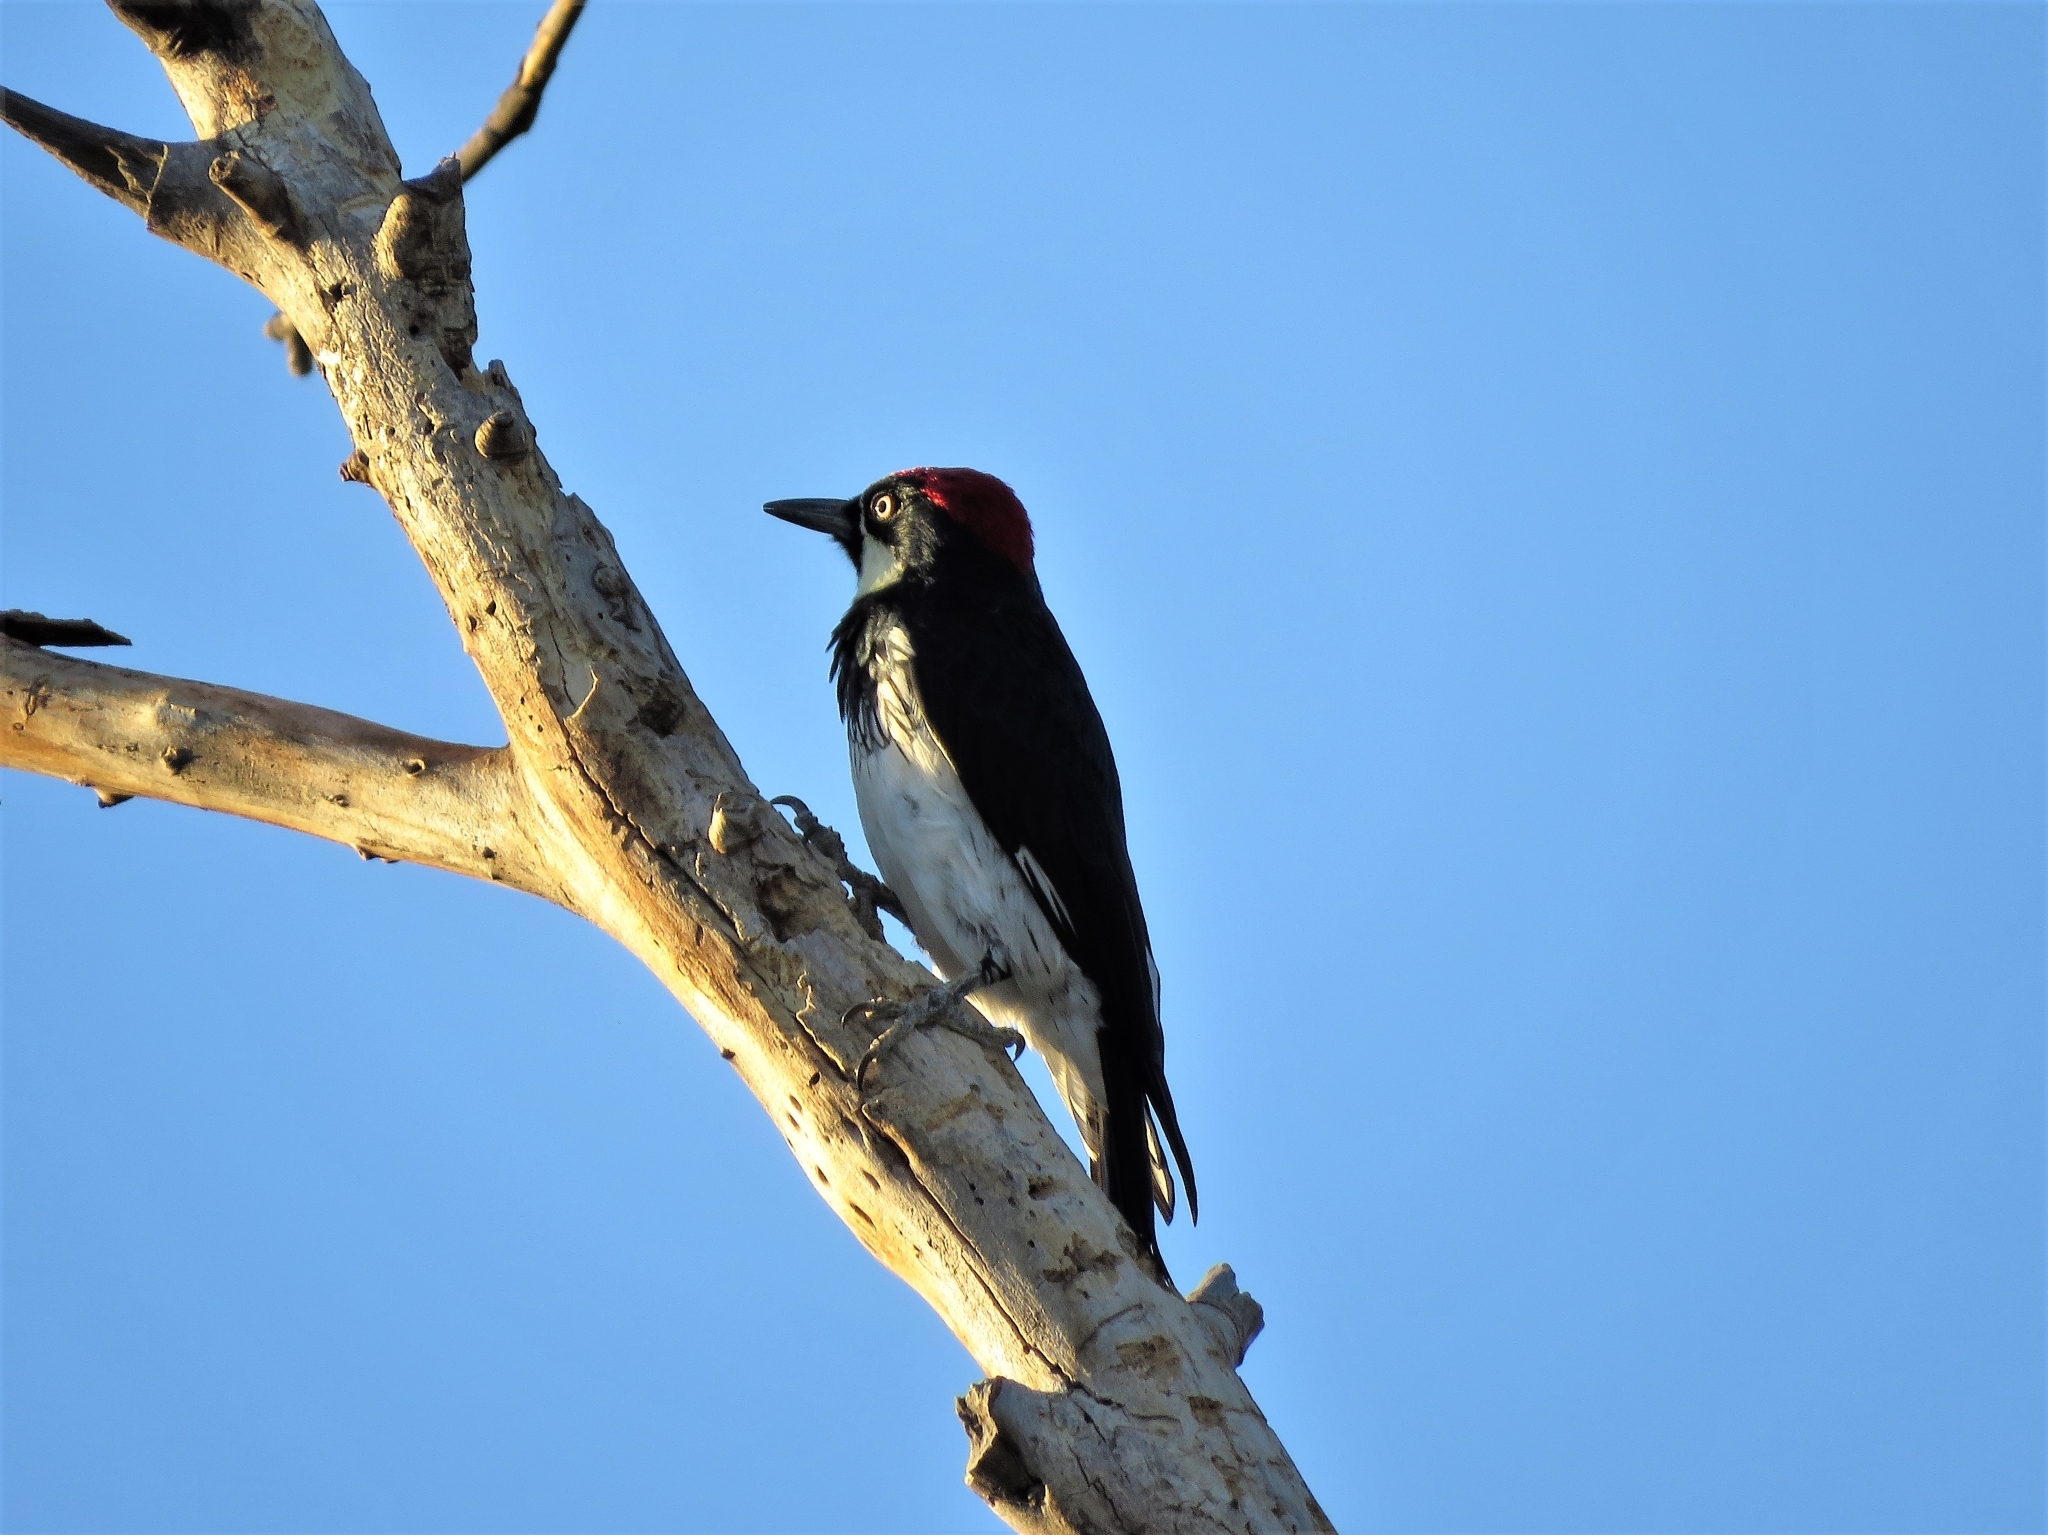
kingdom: Animalia
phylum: Chordata
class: Aves
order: Piciformes
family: Picidae
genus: Melanerpes
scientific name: Melanerpes formicivorus
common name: Acorn woodpecker
